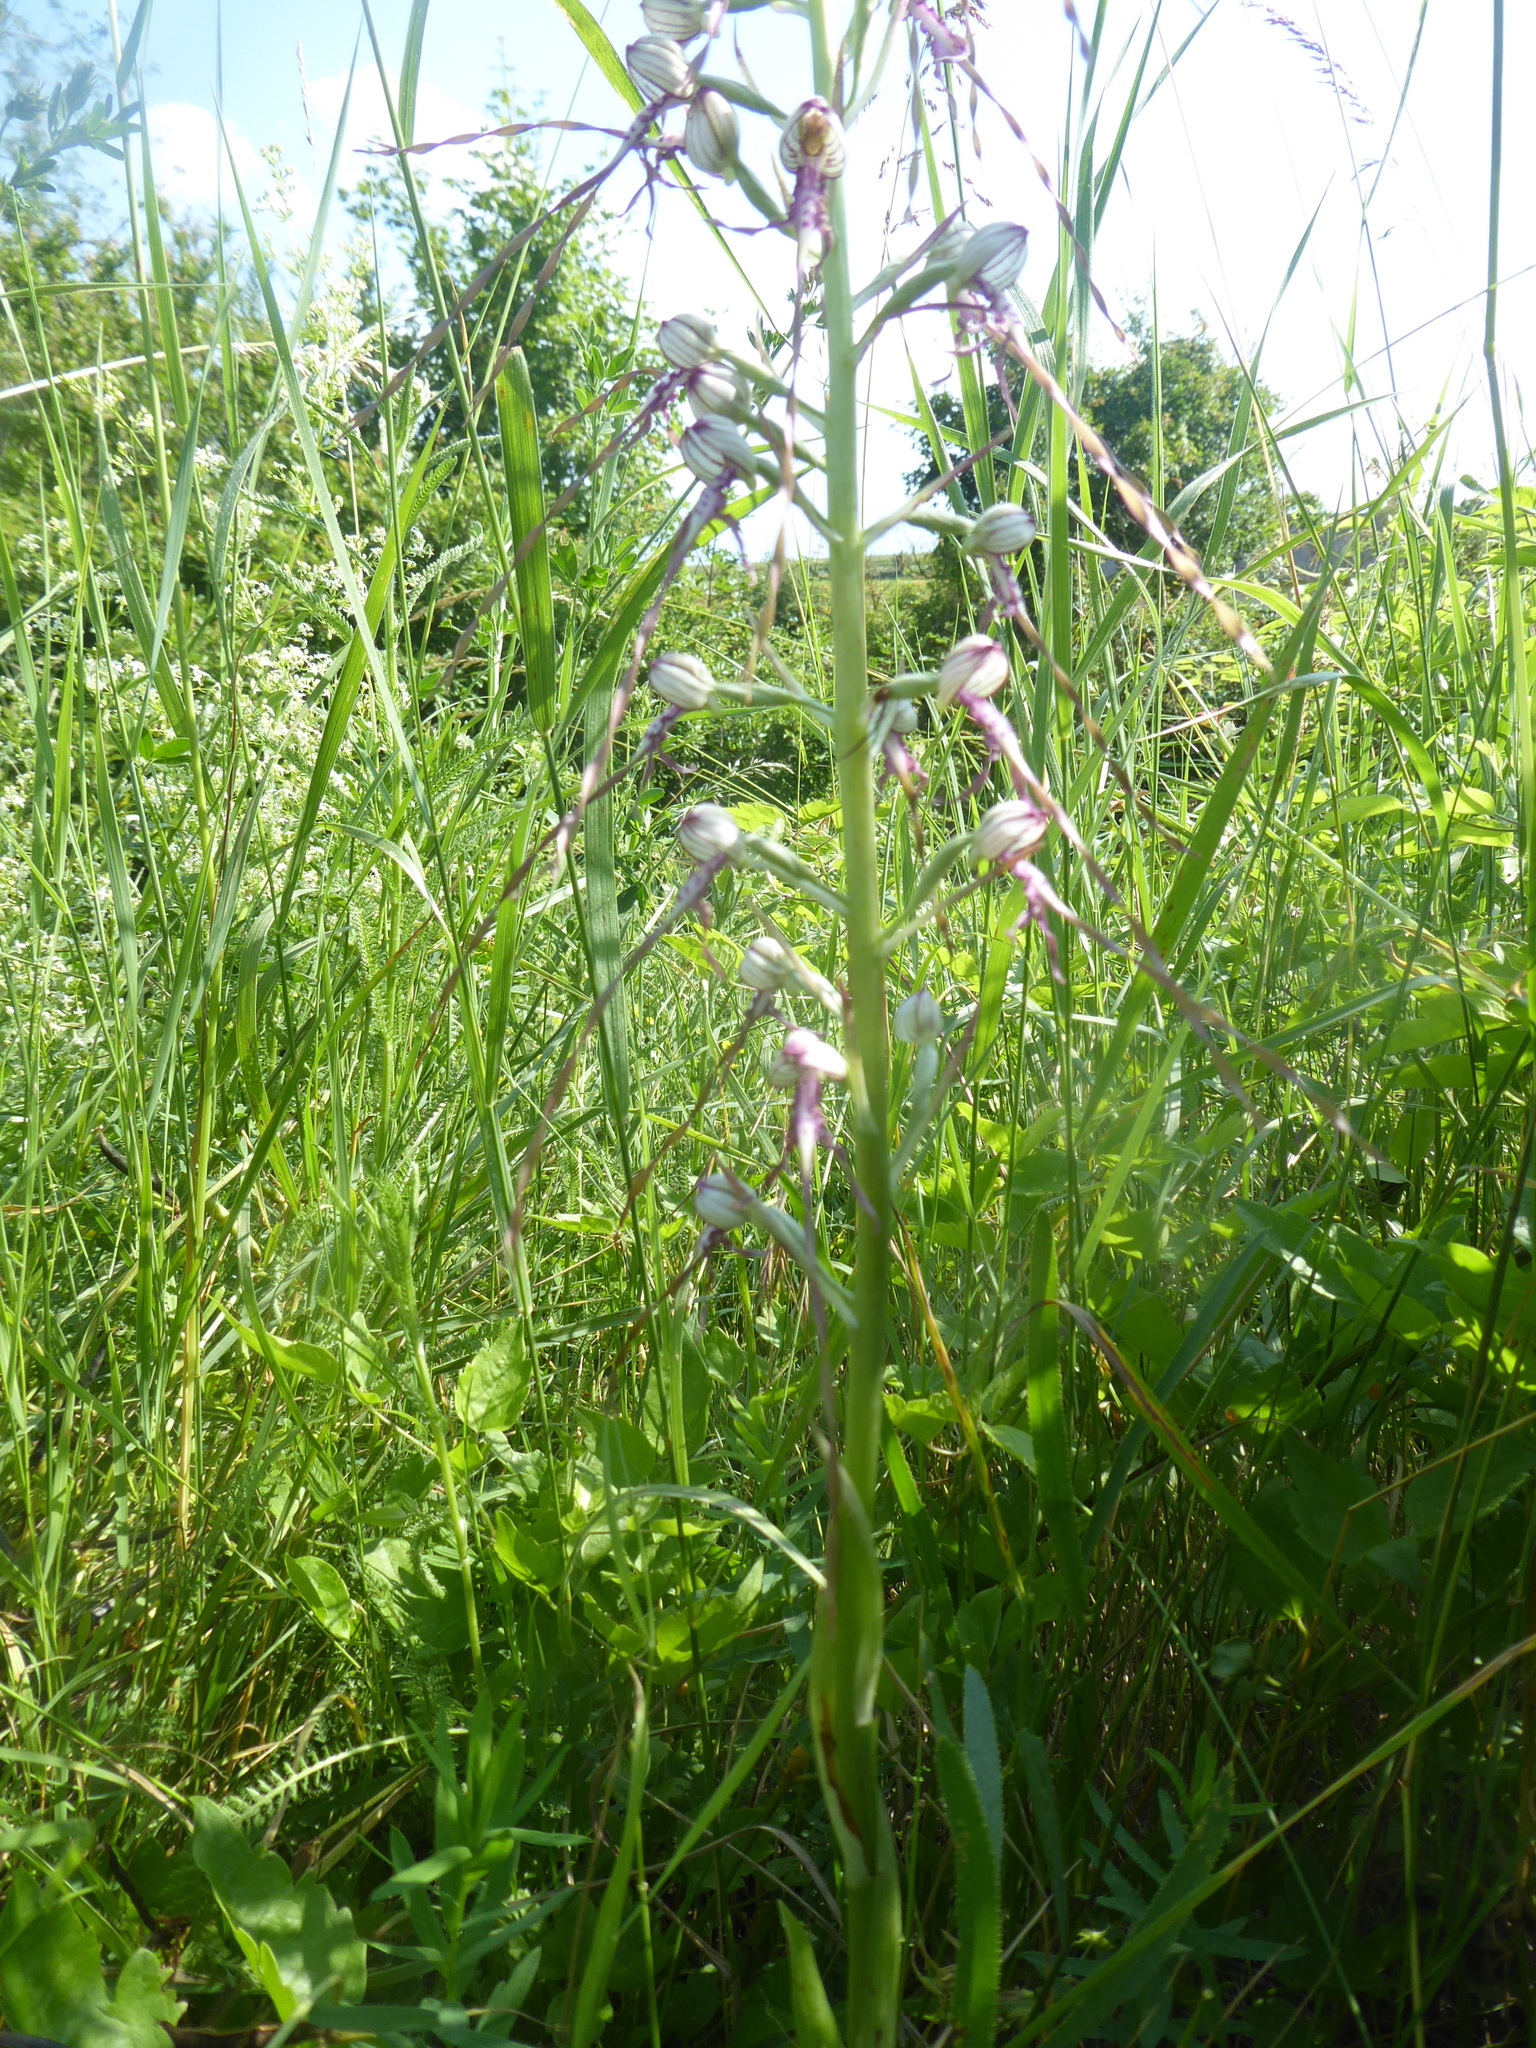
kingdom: Plantae
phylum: Tracheophyta
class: Liliopsida
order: Asparagales
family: Orchidaceae
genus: Himantoglossum
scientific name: Himantoglossum adriaticum
